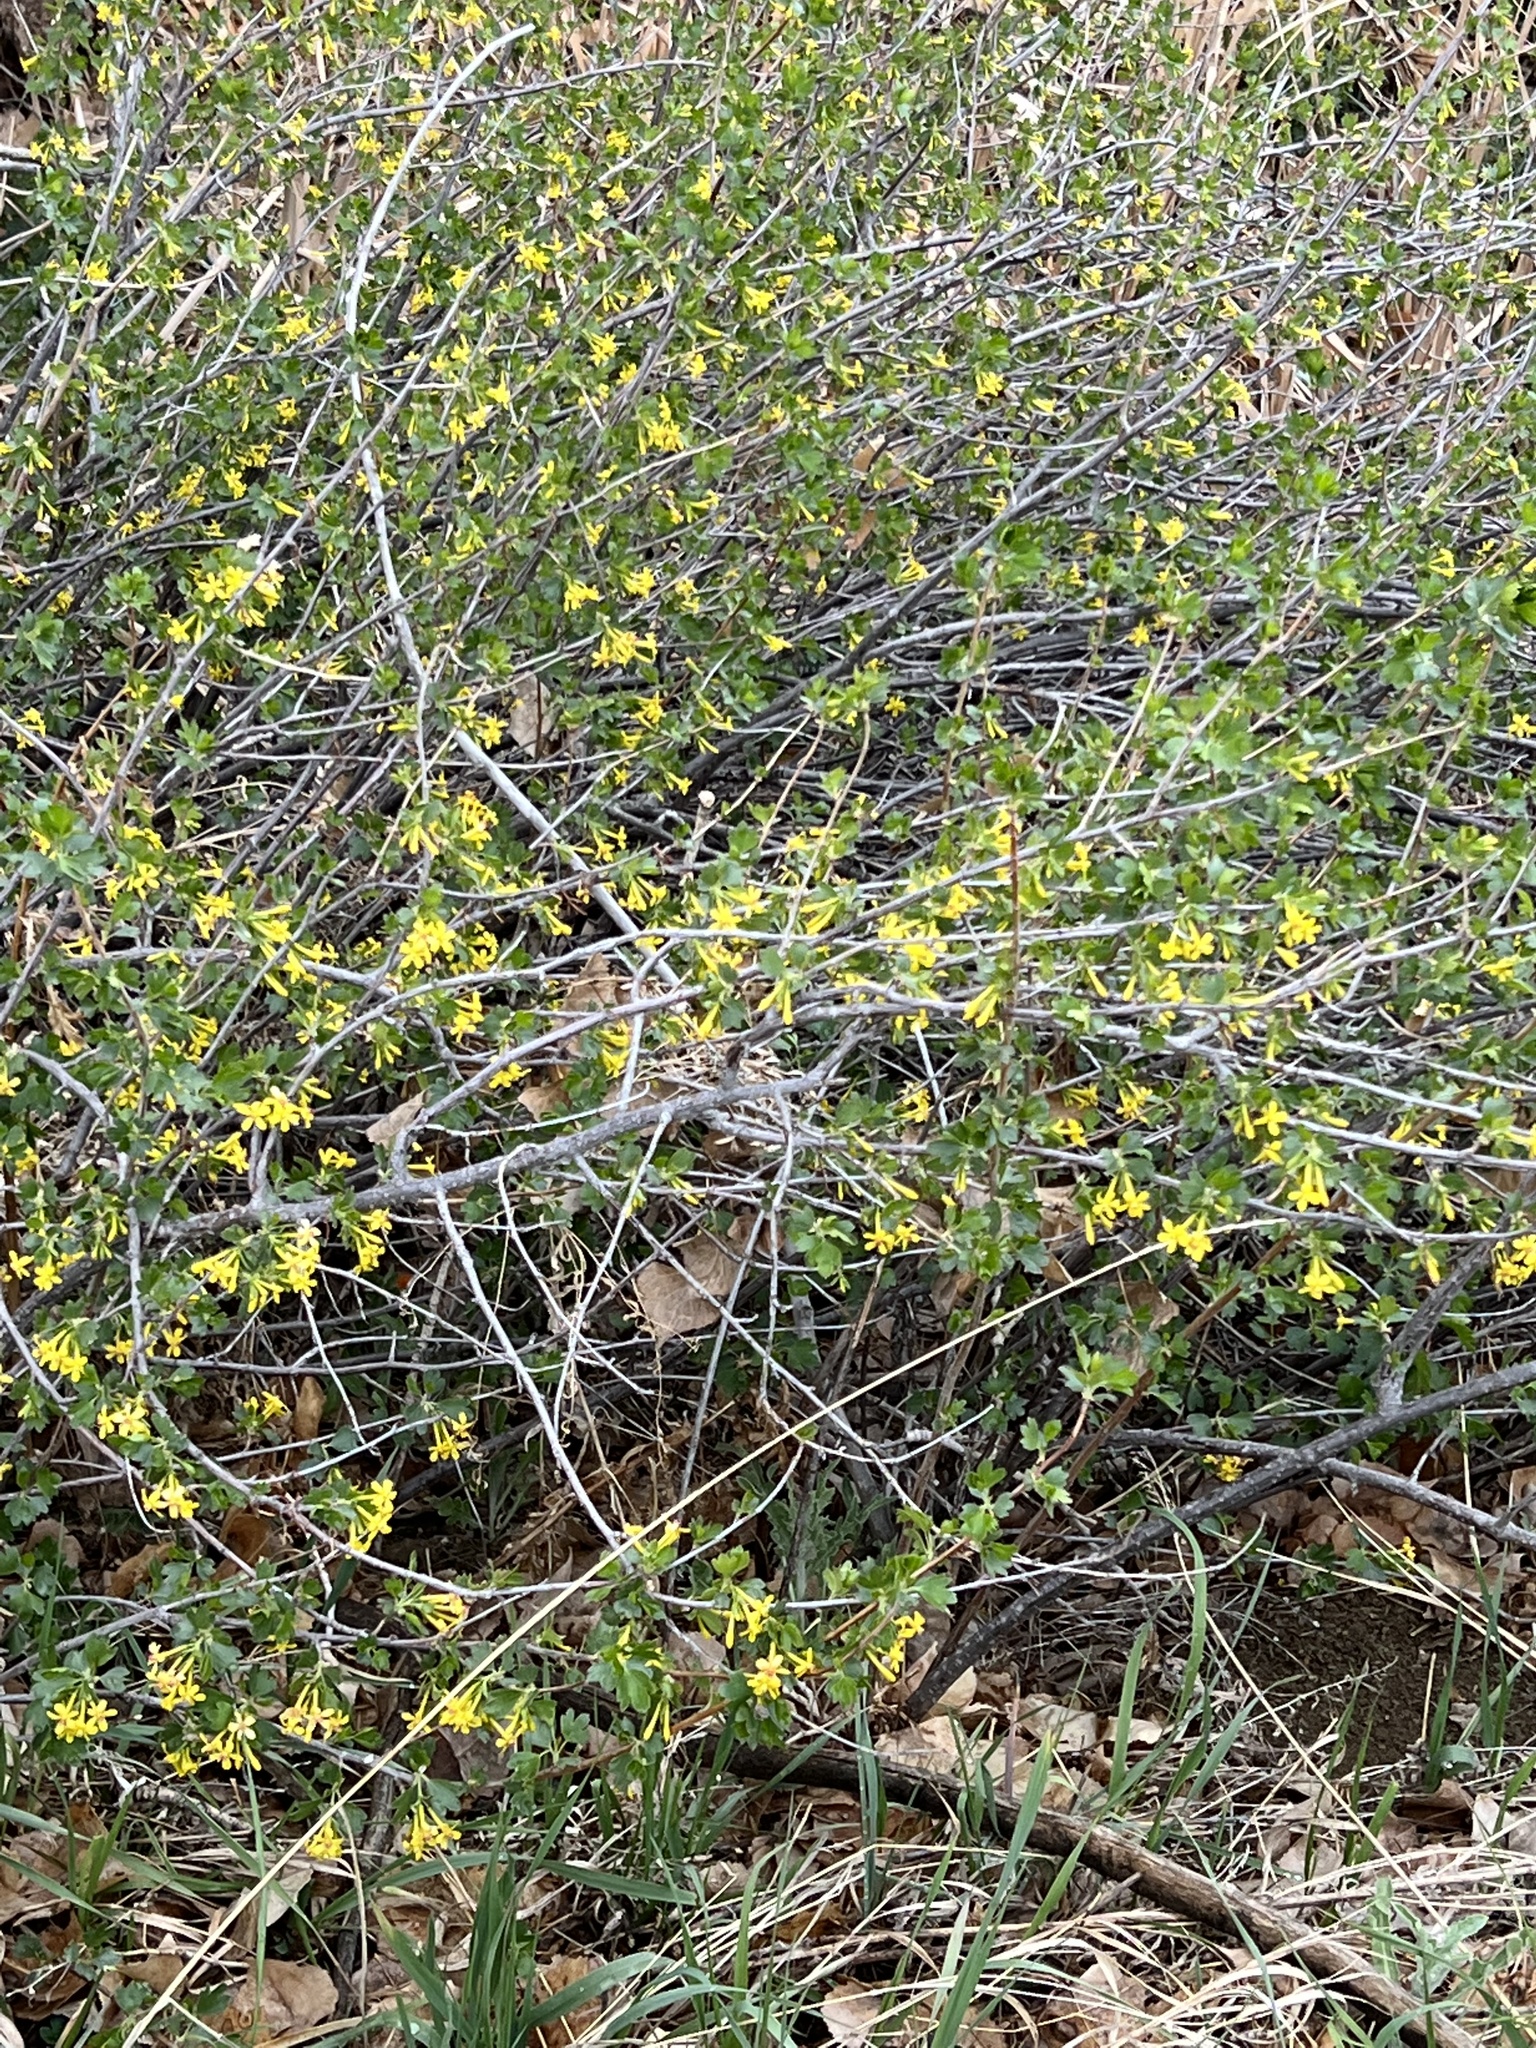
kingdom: Plantae
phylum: Tracheophyta
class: Magnoliopsida
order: Saxifragales
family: Grossulariaceae
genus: Ribes
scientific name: Ribes aureum
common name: Golden currant
